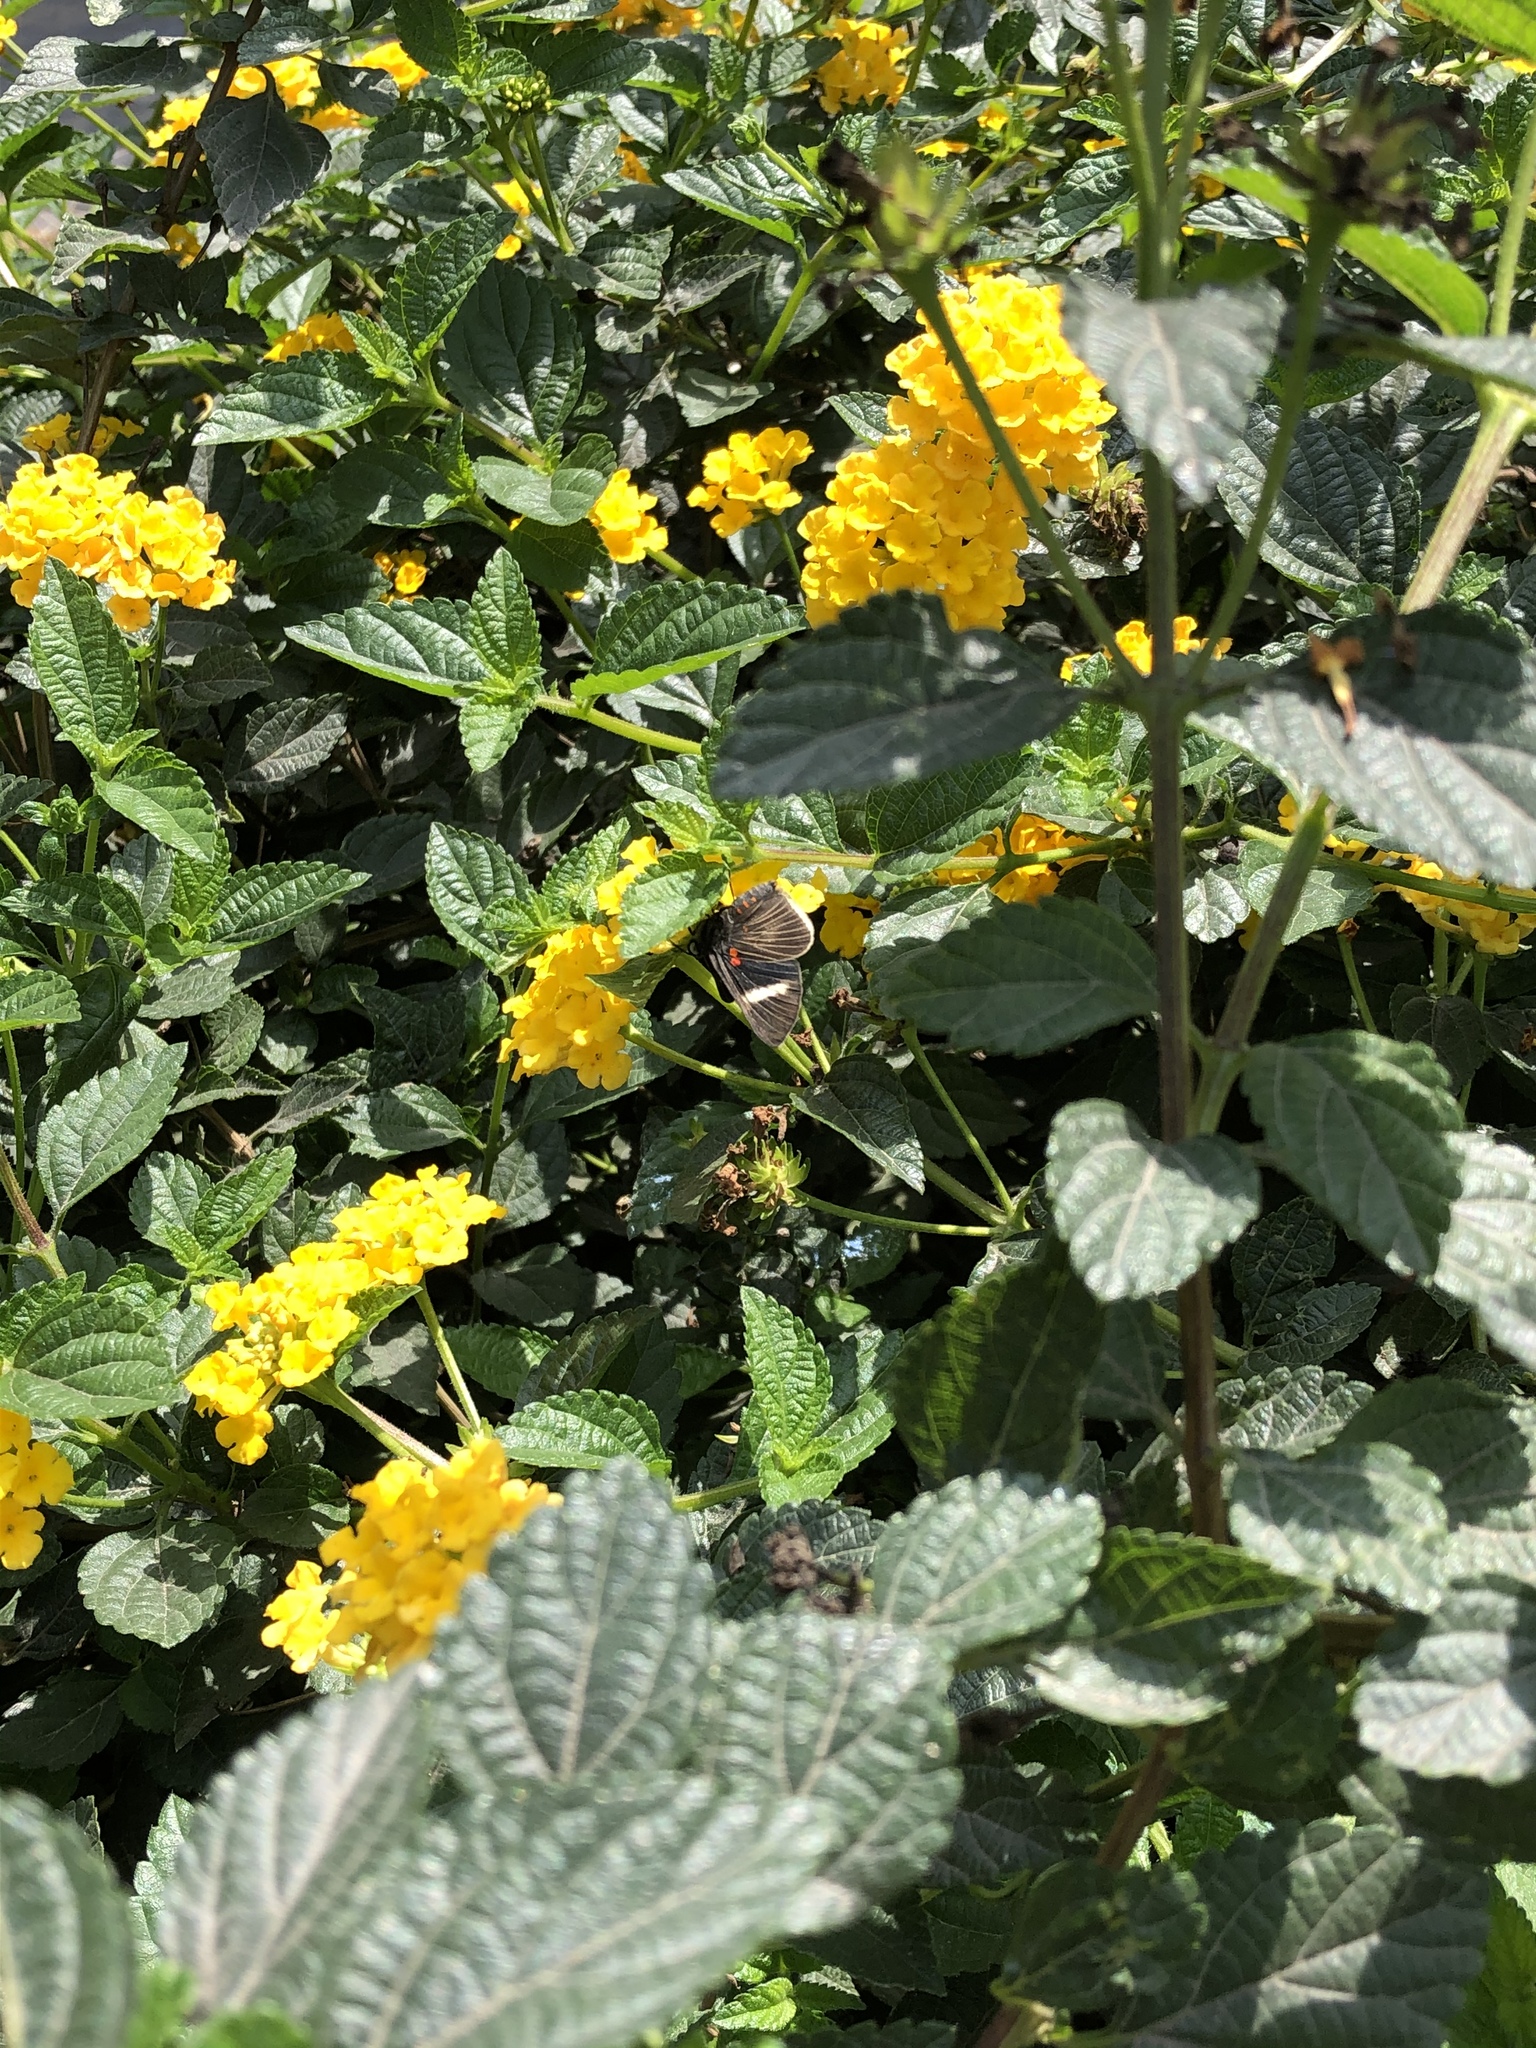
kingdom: Animalia
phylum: Arthropoda
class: Insecta
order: Lepidoptera
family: Lycaenidae
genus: Melanis
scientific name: Melanis
